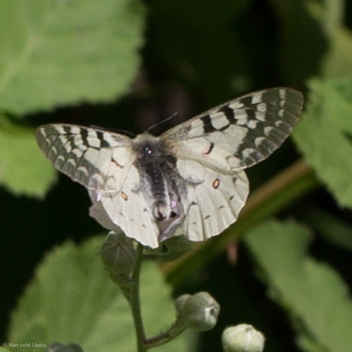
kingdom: Animalia
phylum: Arthropoda
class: Insecta
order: Lepidoptera
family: Papilionidae
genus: Parnassius
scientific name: Parnassius clodius
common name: American apollo
